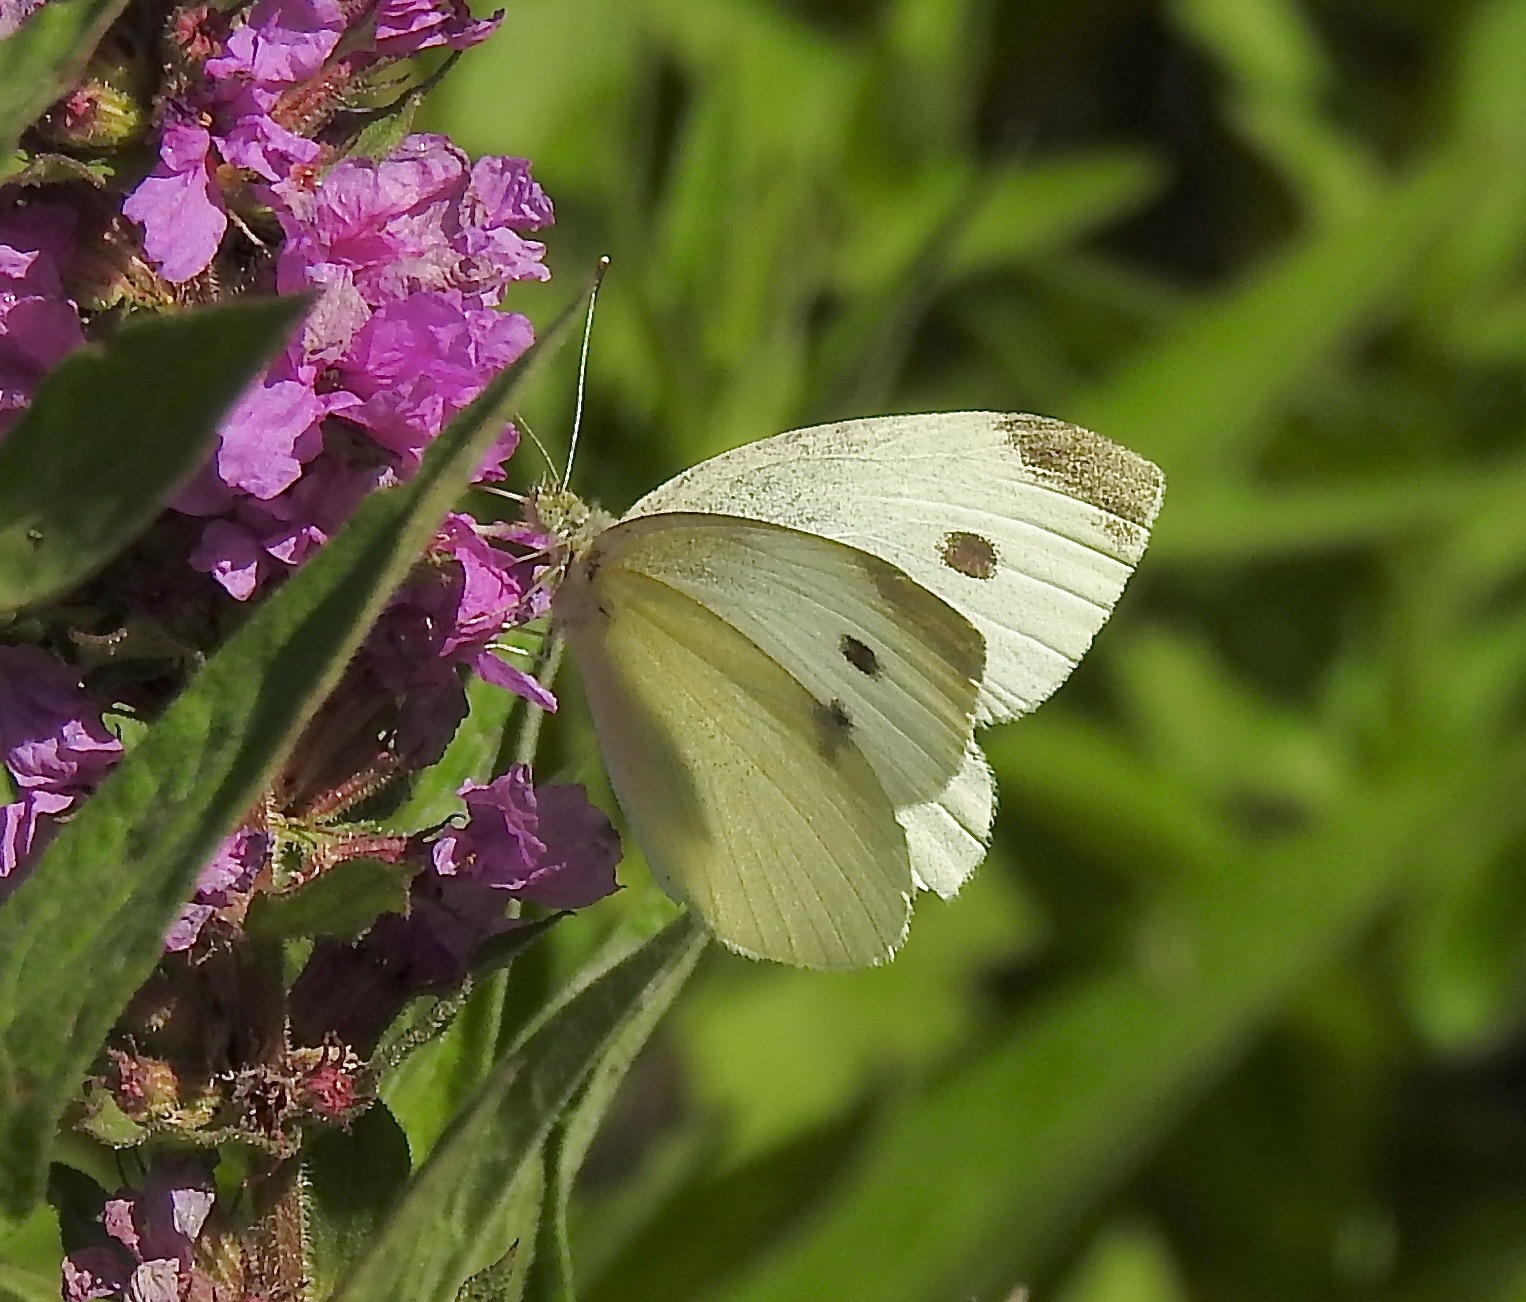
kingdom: Animalia
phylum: Arthropoda
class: Insecta
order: Lepidoptera
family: Pieridae
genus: Pieris
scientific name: Pieris rapae
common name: Small white
